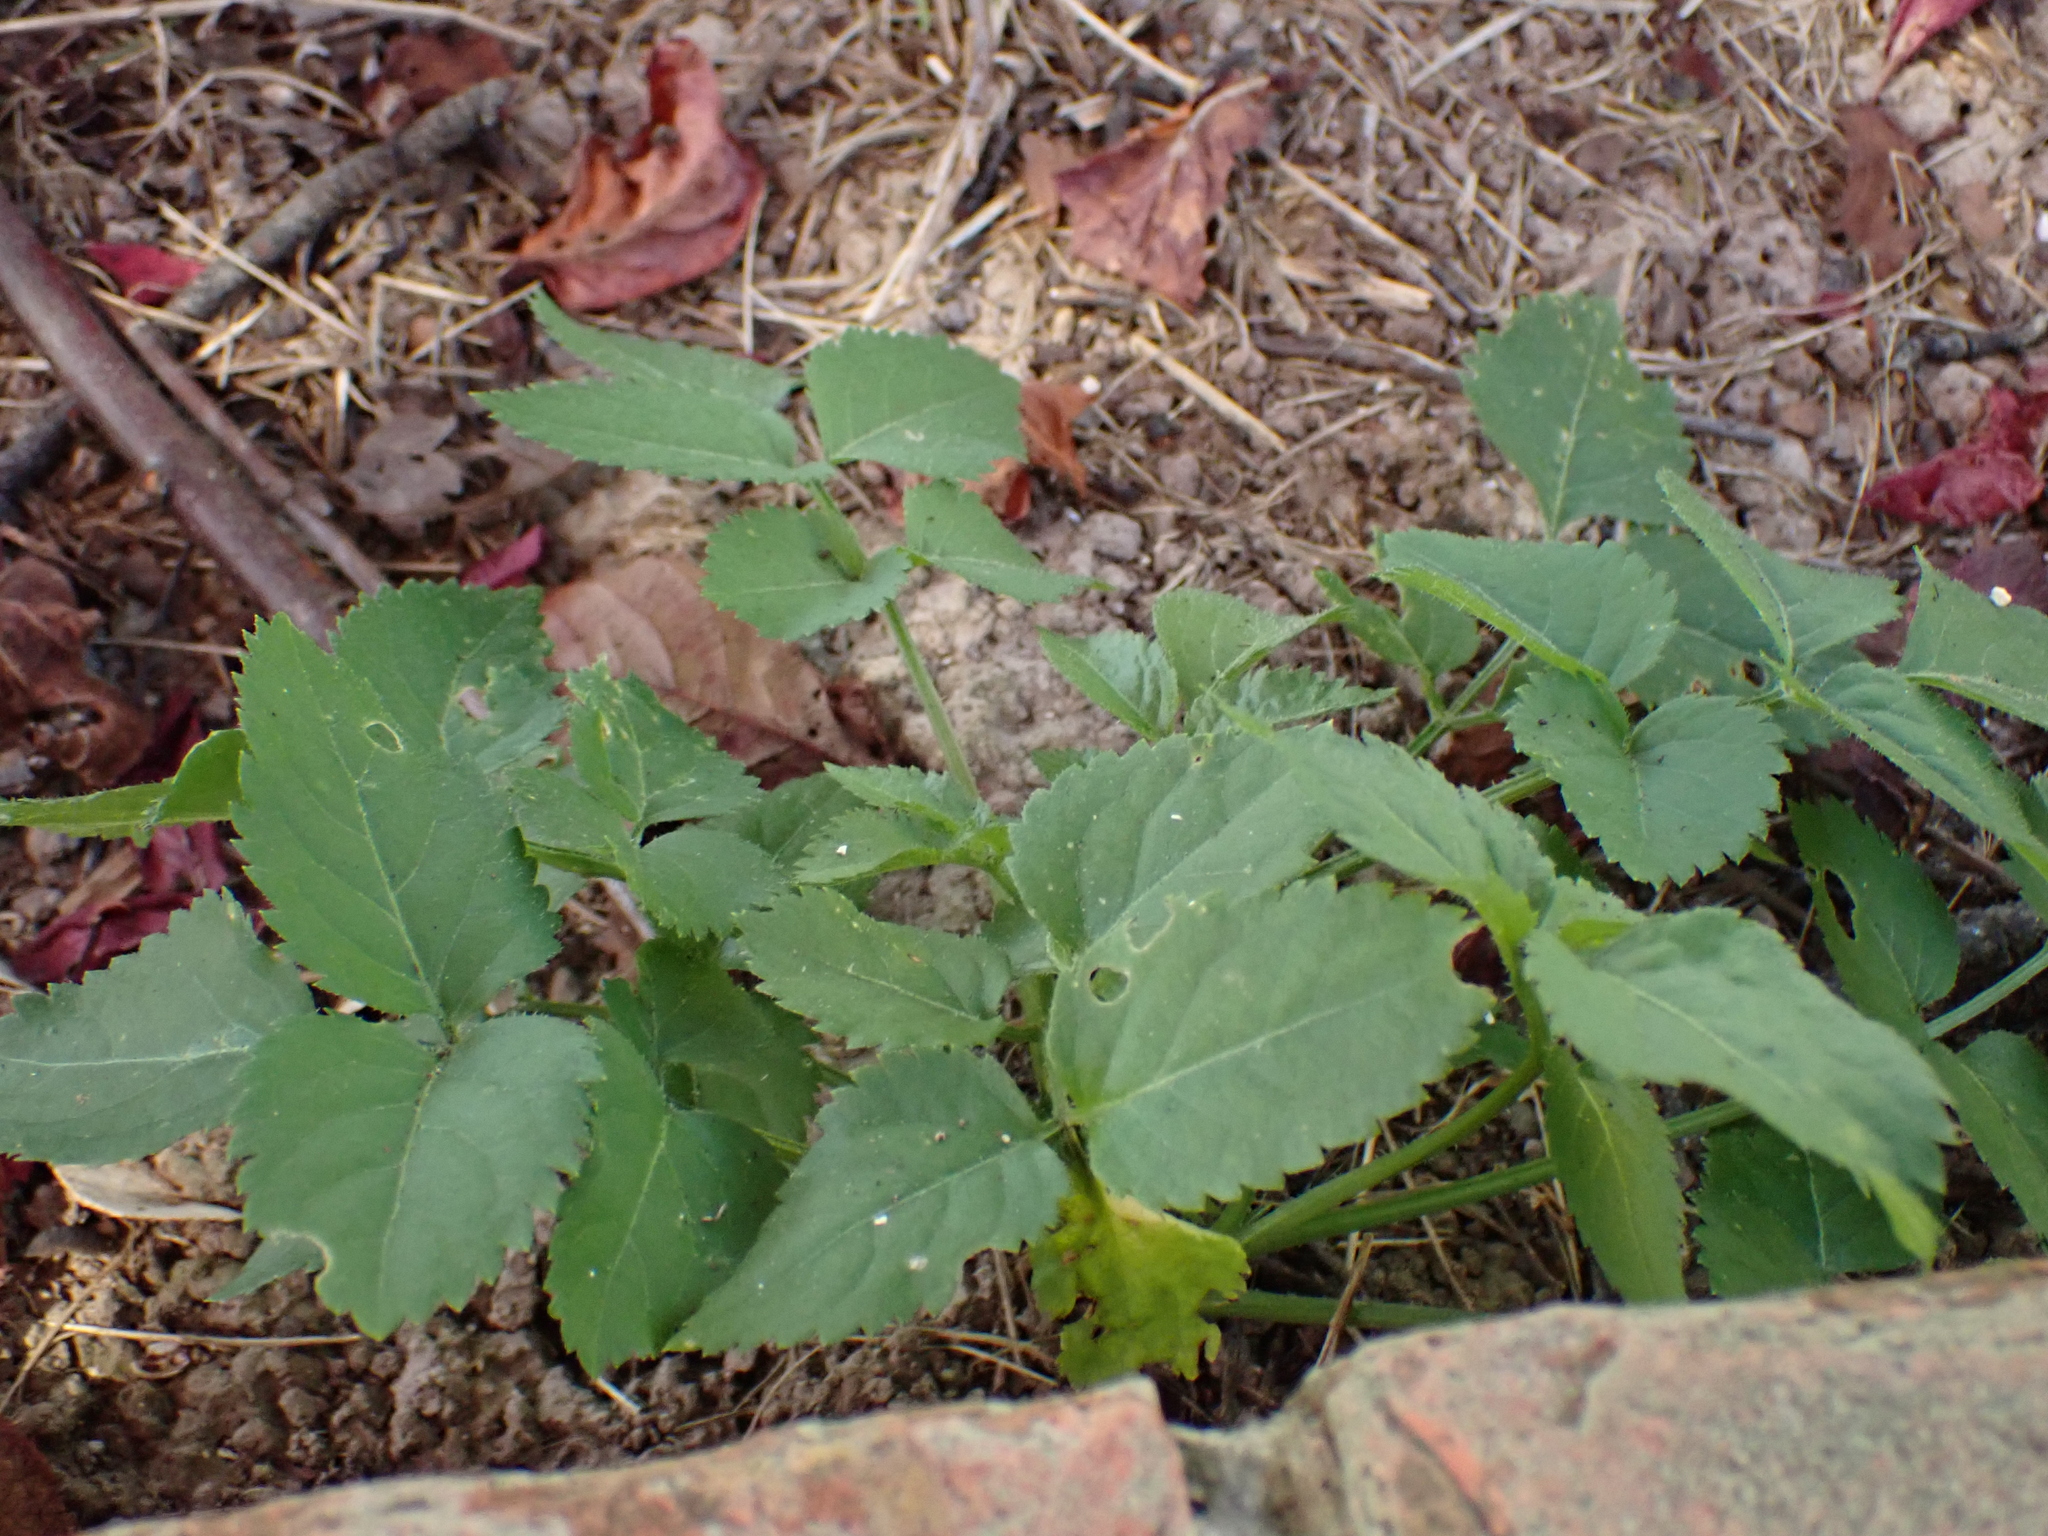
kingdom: Plantae
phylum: Tracheophyta
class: Magnoliopsida
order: Dipsacales
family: Viburnaceae
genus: Sambucus
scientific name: Sambucus nigra
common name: Elder
